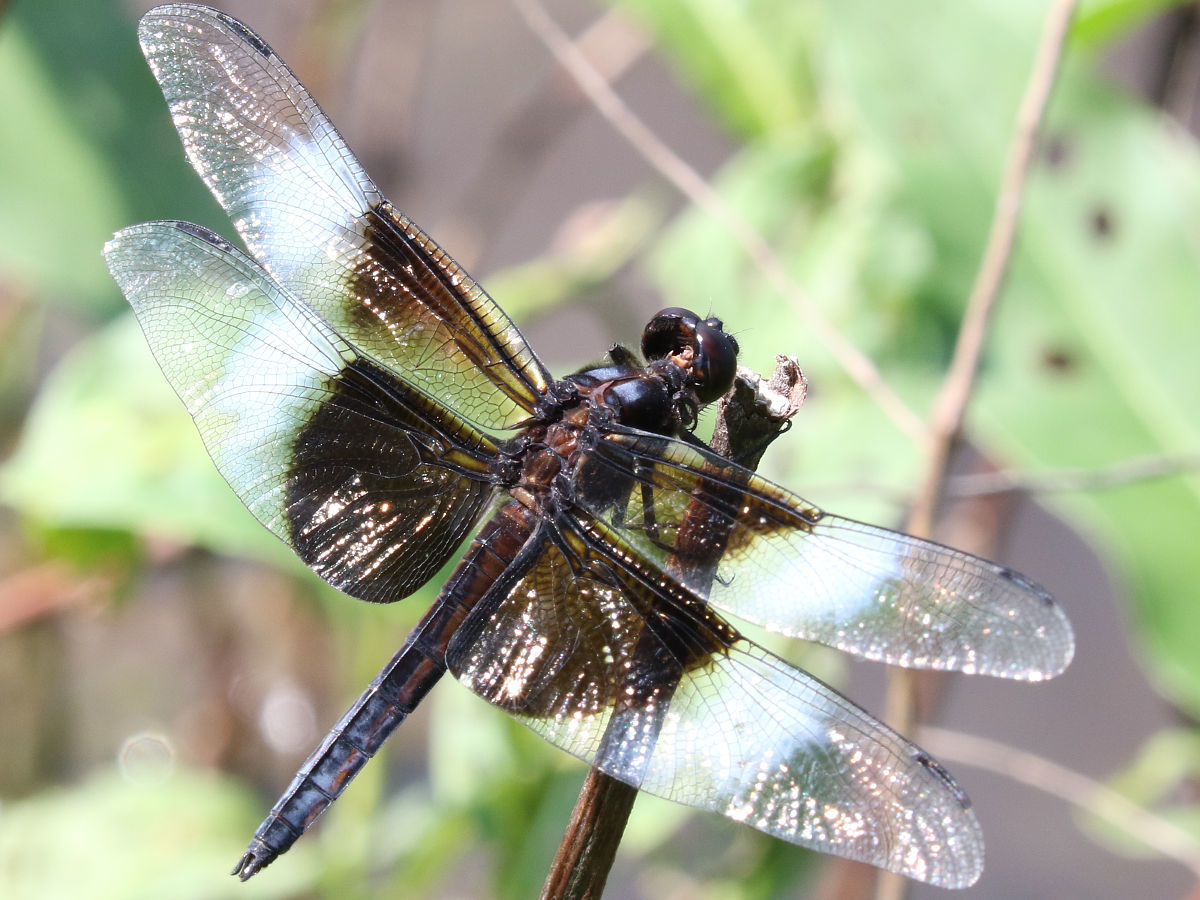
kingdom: Animalia
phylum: Arthropoda
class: Insecta
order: Odonata
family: Libellulidae
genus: Libellula
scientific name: Libellula luctuosa
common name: Widow skimmer
